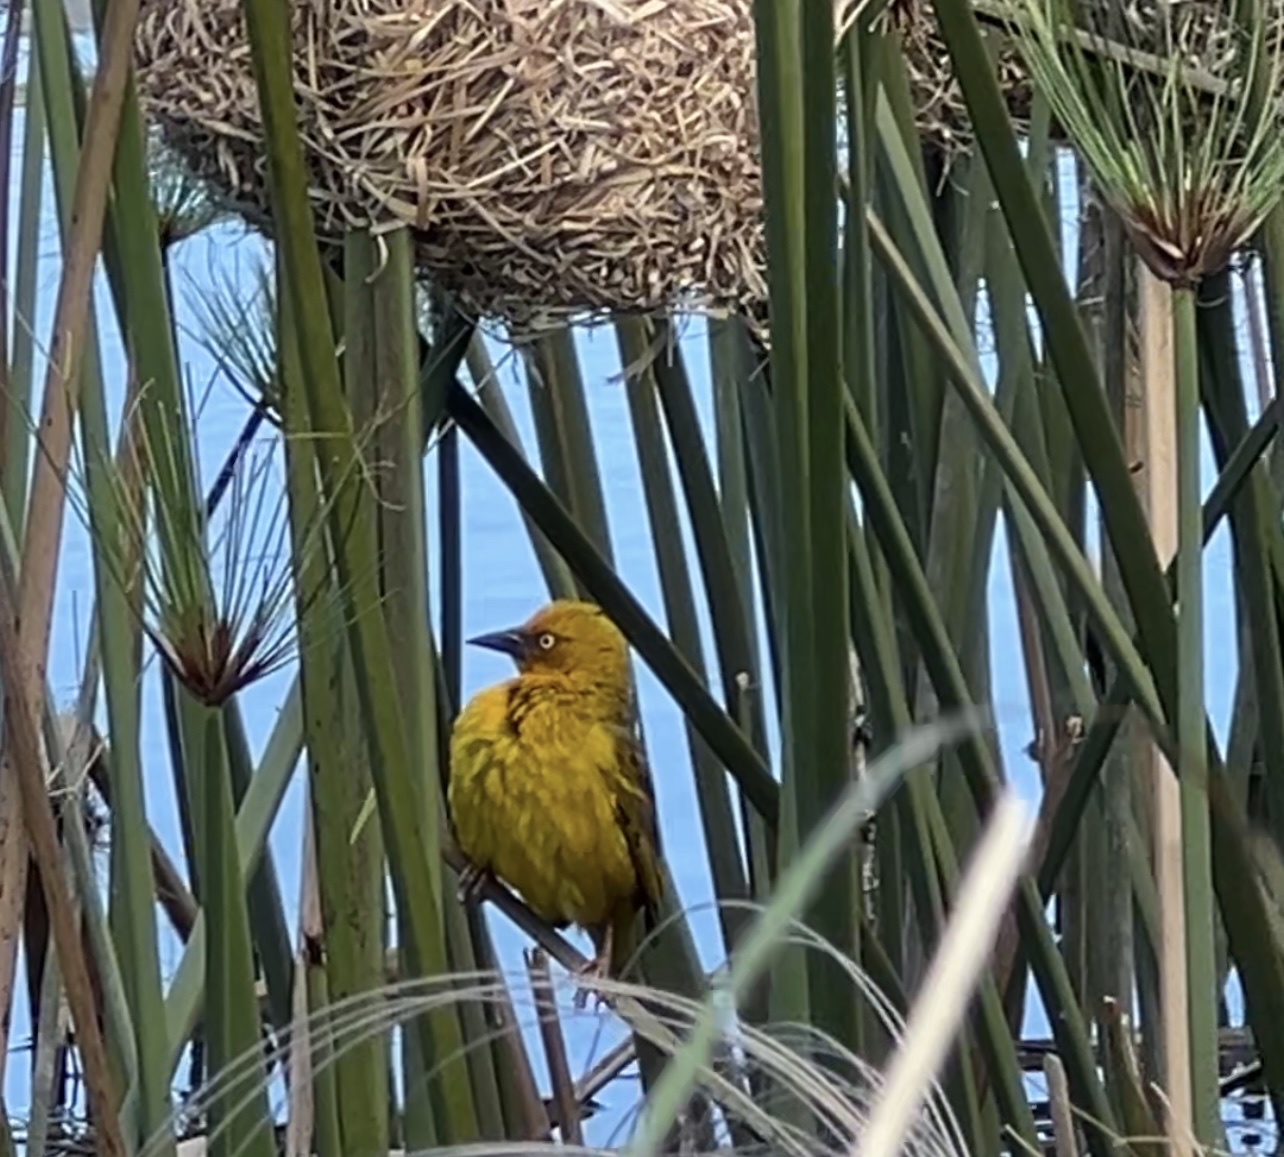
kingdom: Animalia
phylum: Chordata
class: Aves
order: Passeriformes
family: Ploceidae
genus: Ploceus
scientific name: Ploceus capensis
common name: Cape weaver
